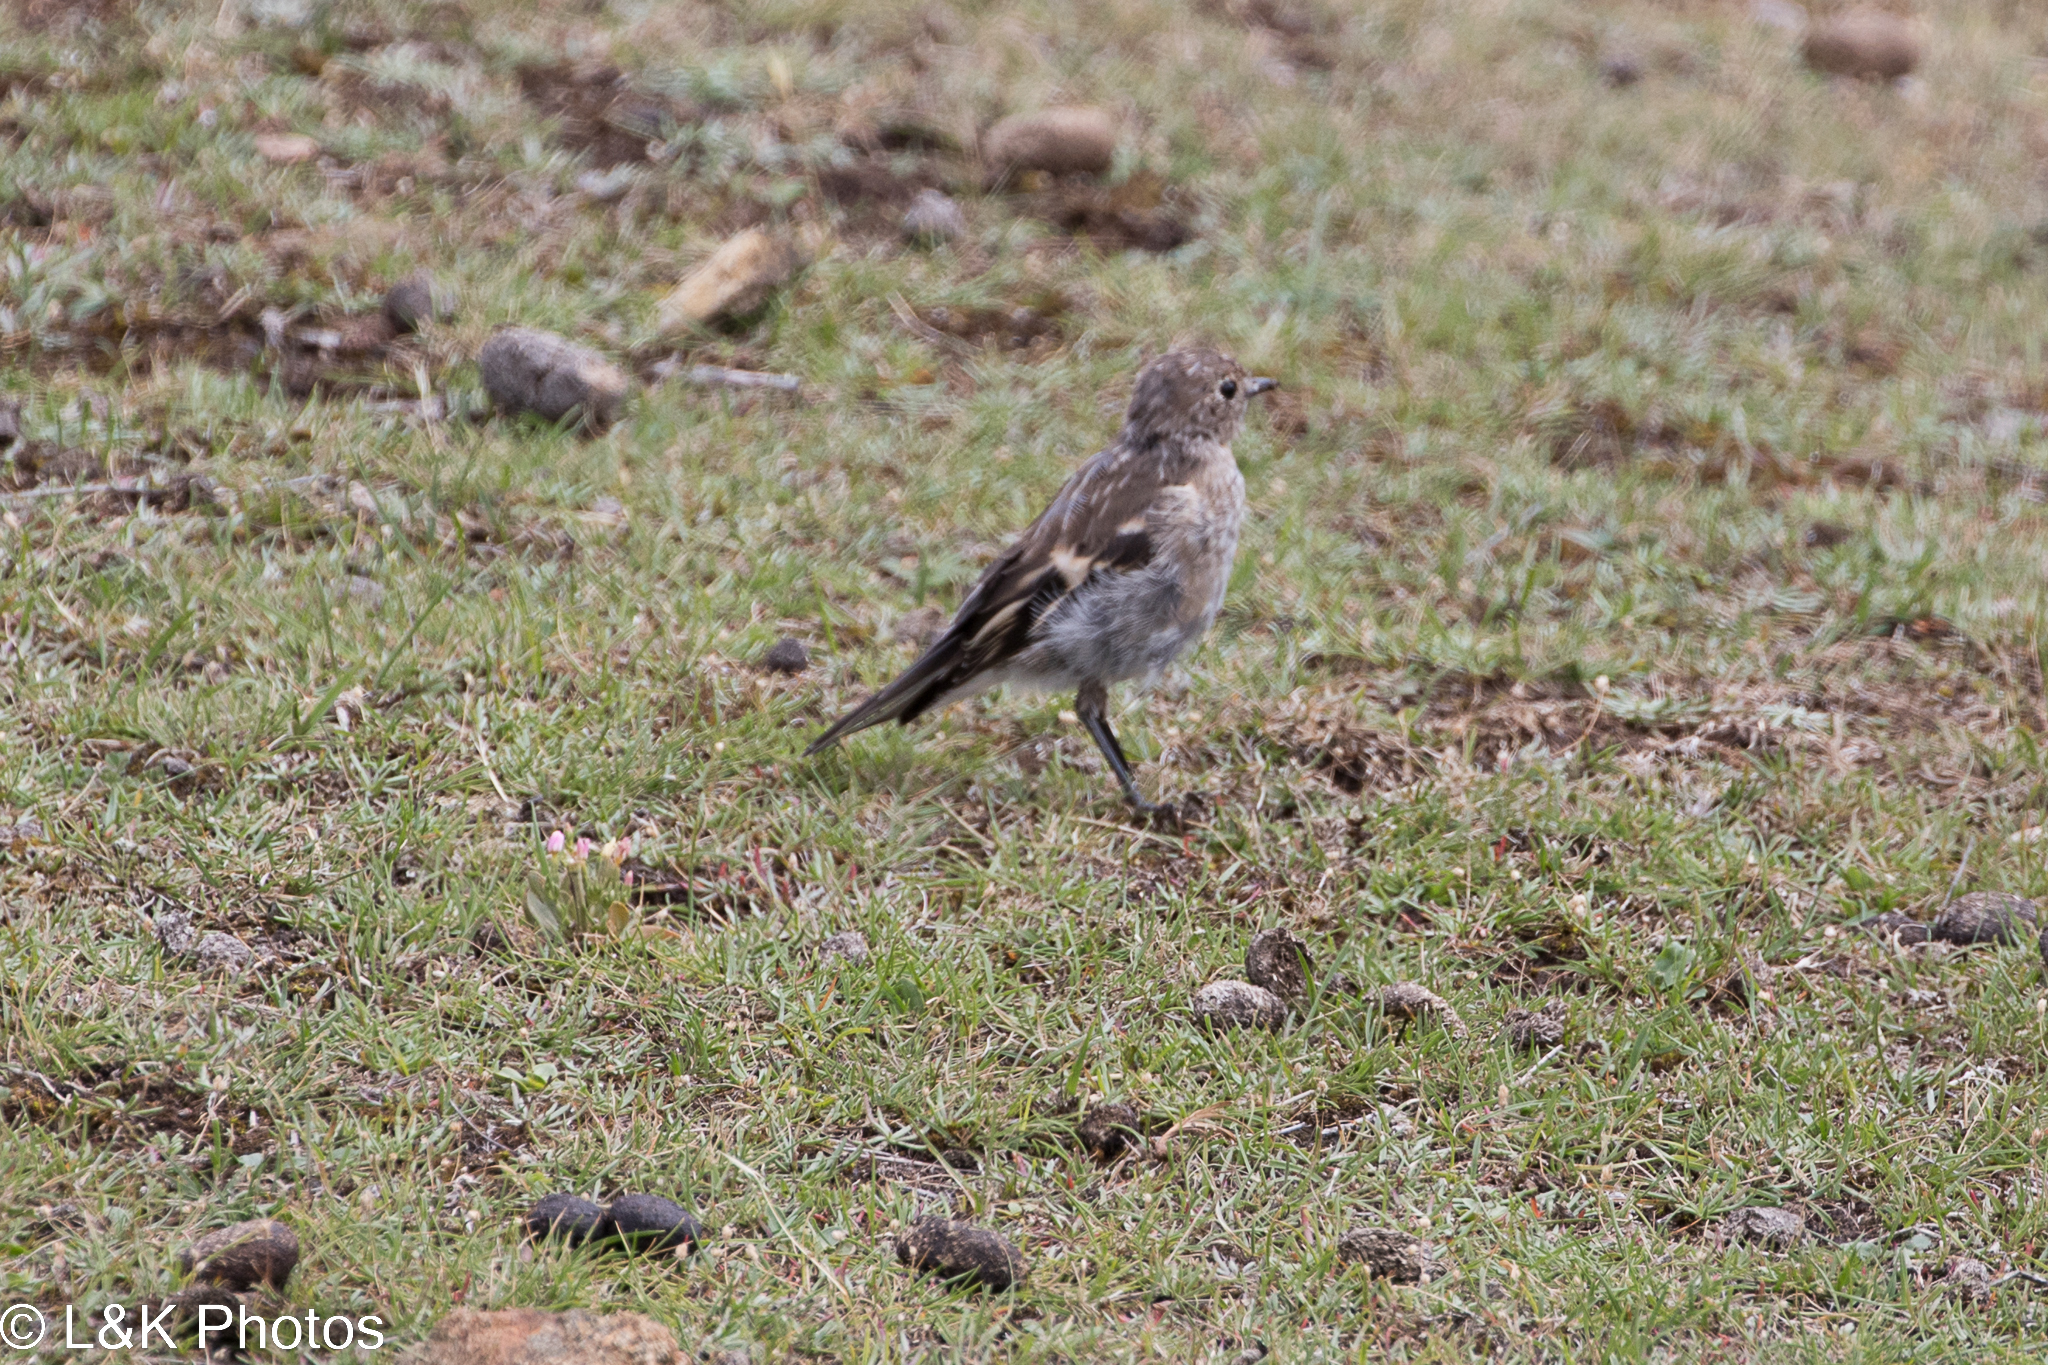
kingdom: Animalia
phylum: Chordata
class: Aves
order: Passeriformes
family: Petroicidae
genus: Petroica
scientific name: Petroica phoenicea
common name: Flame robin
